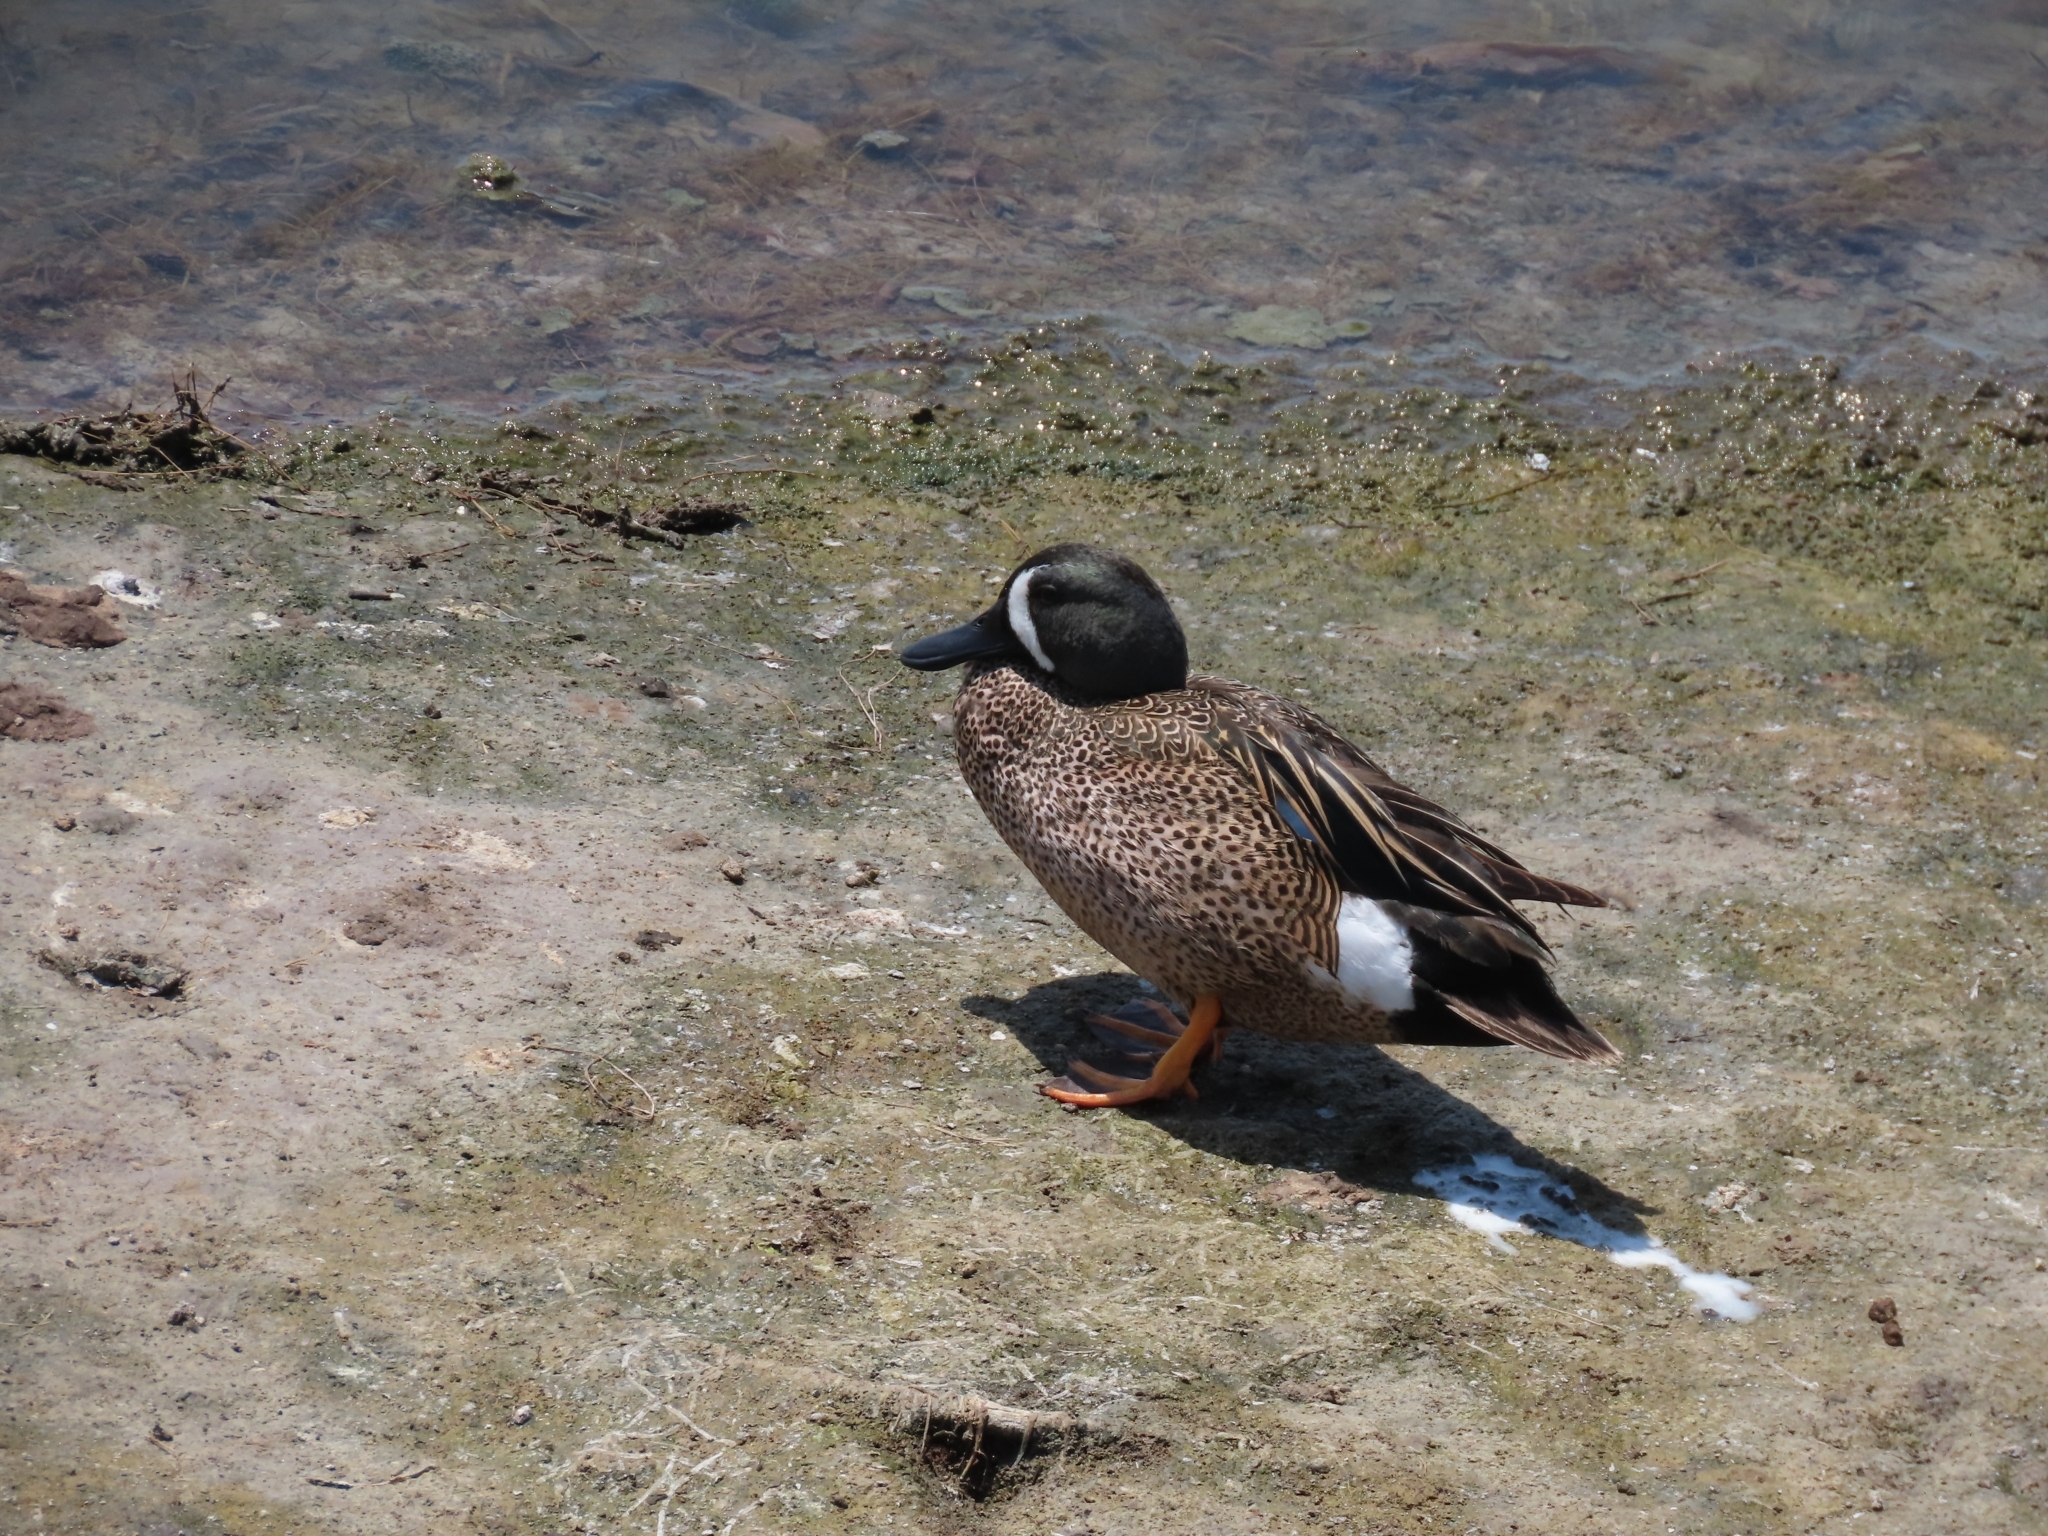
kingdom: Animalia
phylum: Chordata
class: Aves
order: Anseriformes
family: Anatidae
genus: Spatula
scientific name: Spatula discors
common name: Blue-winged teal
